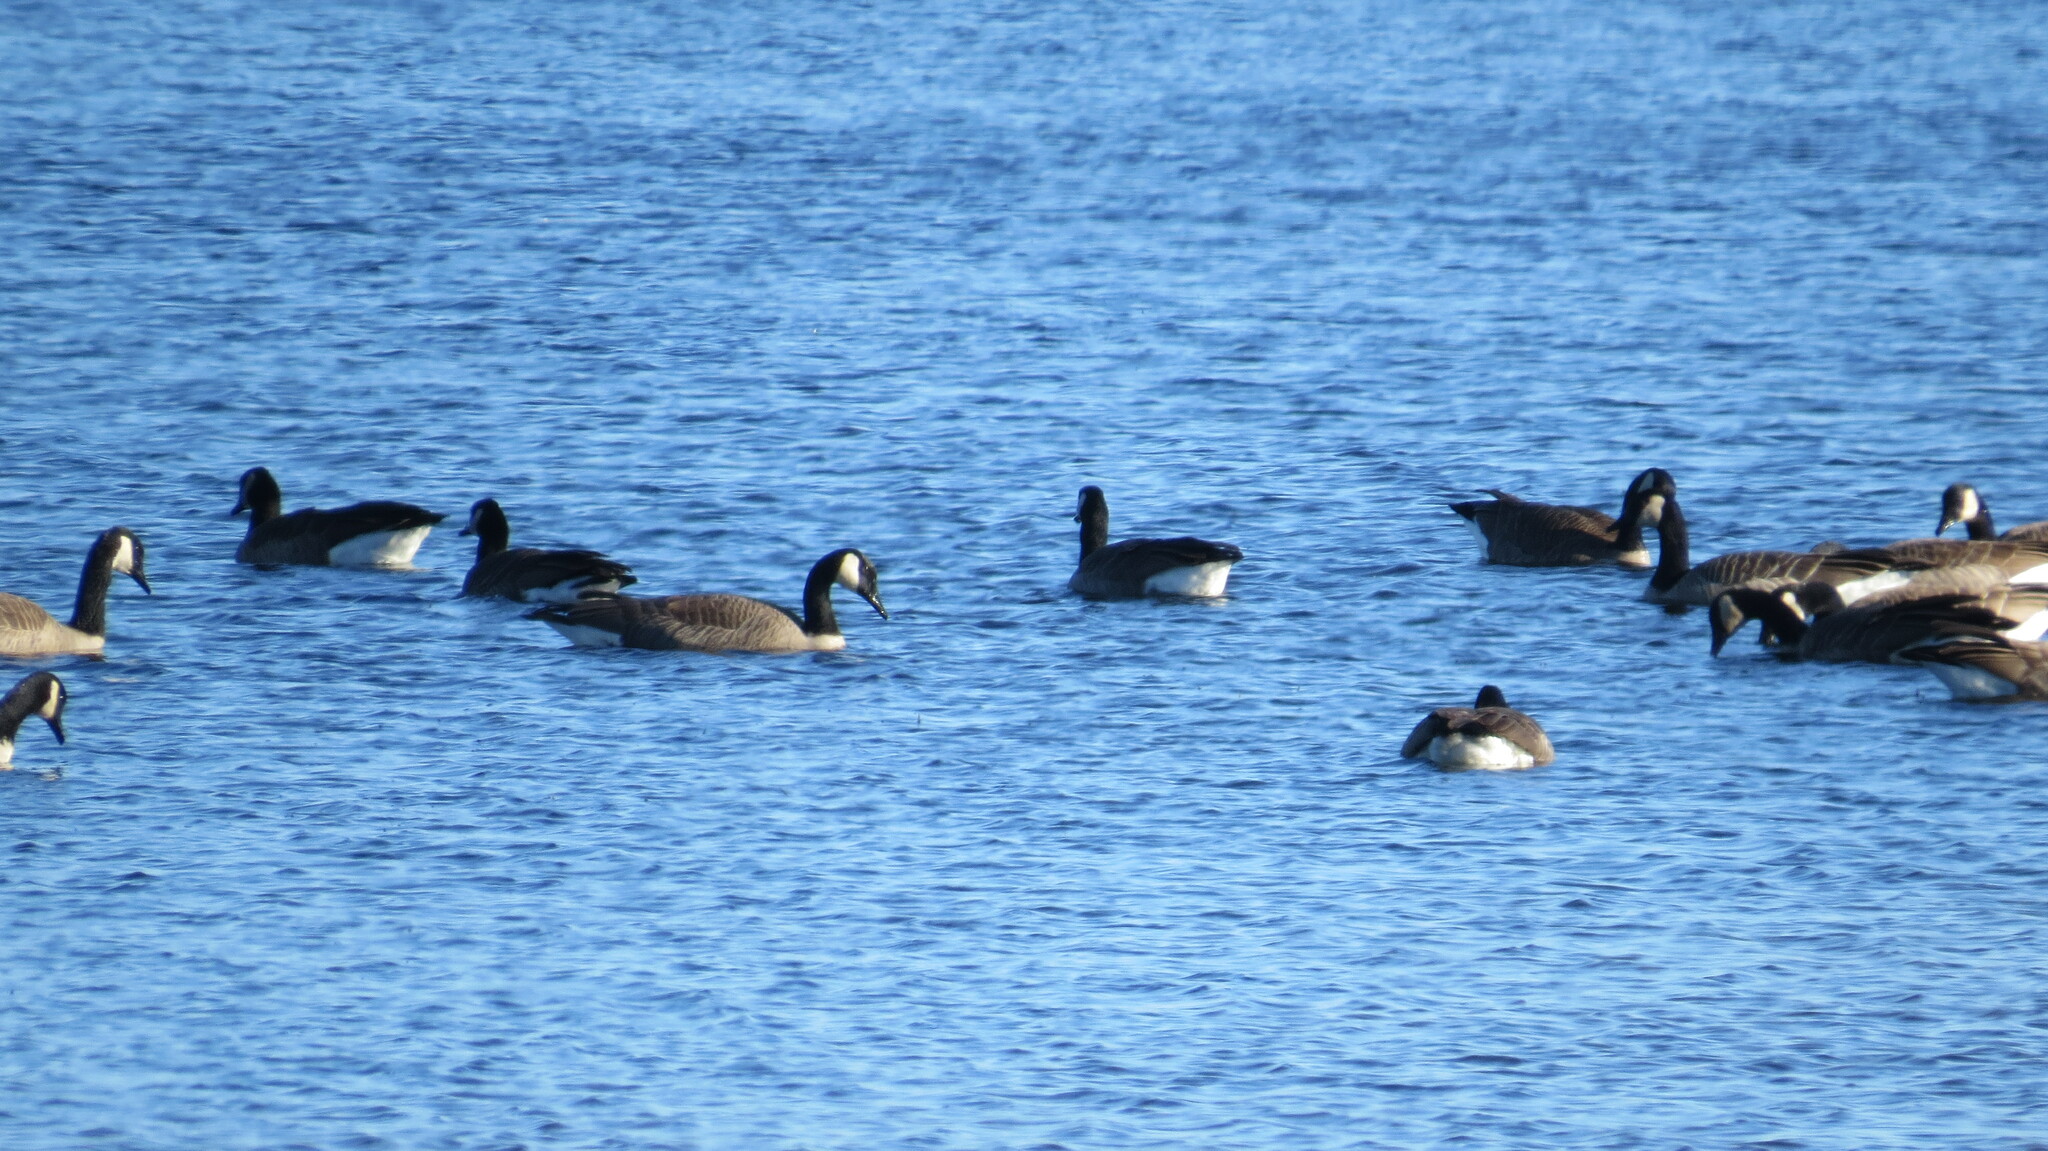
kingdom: Animalia
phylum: Chordata
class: Aves
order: Anseriformes
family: Anatidae
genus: Branta
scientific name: Branta canadensis
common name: Canada goose
